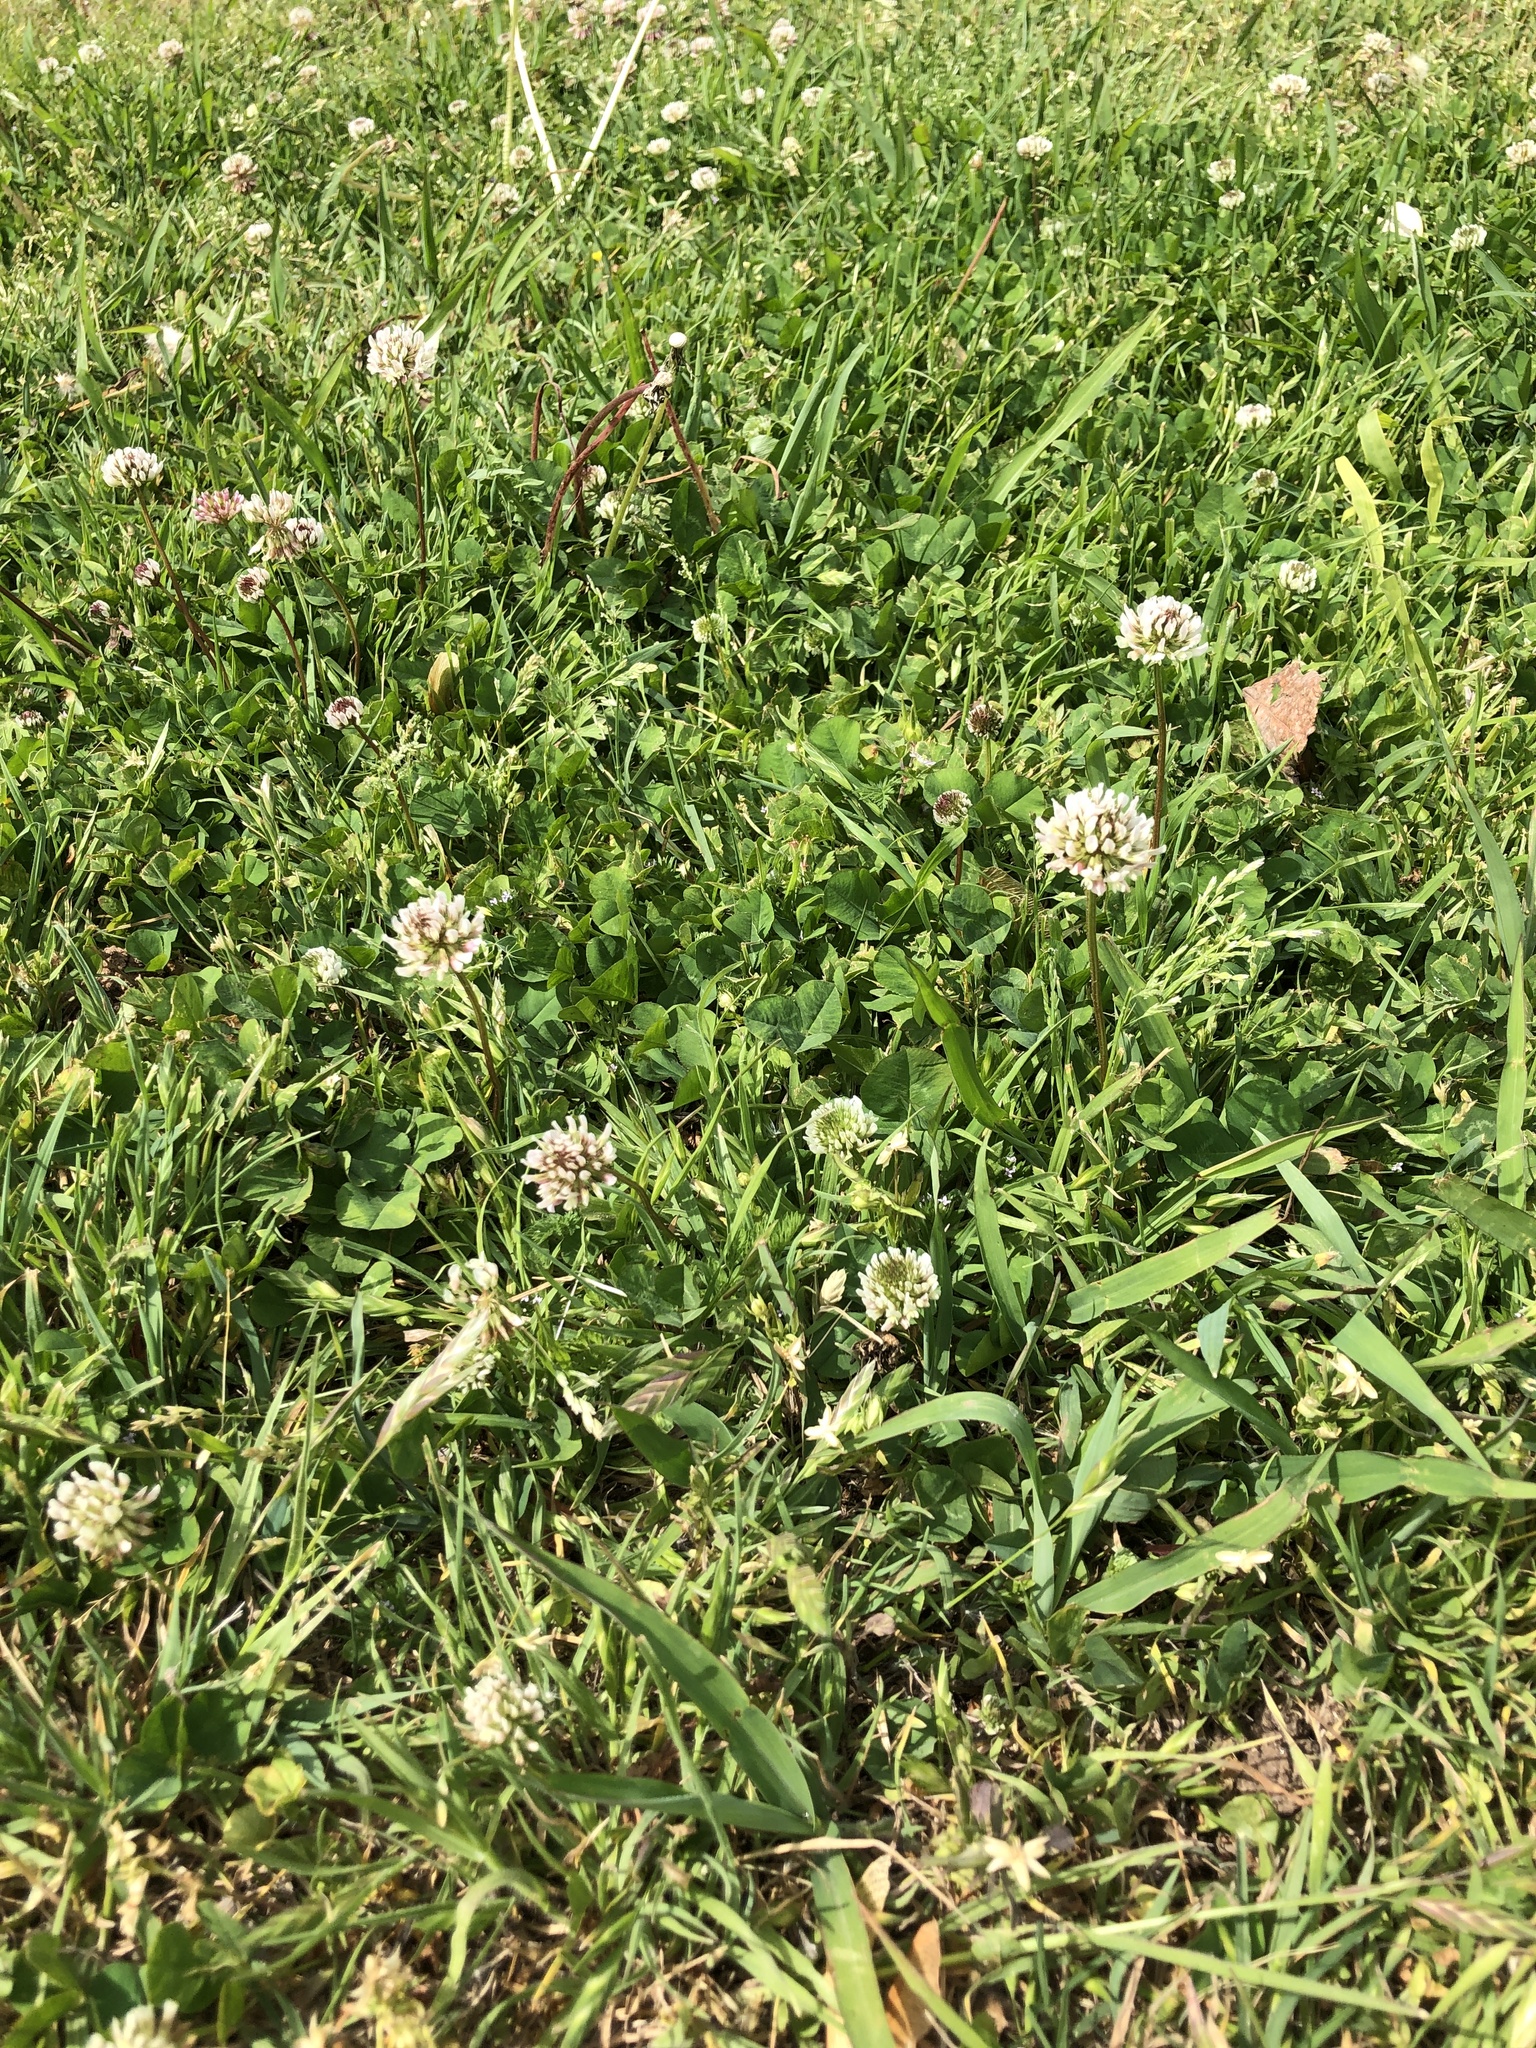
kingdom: Plantae
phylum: Tracheophyta
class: Magnoliopsida
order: Fabales
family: Fabaceae
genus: Trifolium
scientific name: Trifolium repens
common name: White clover
